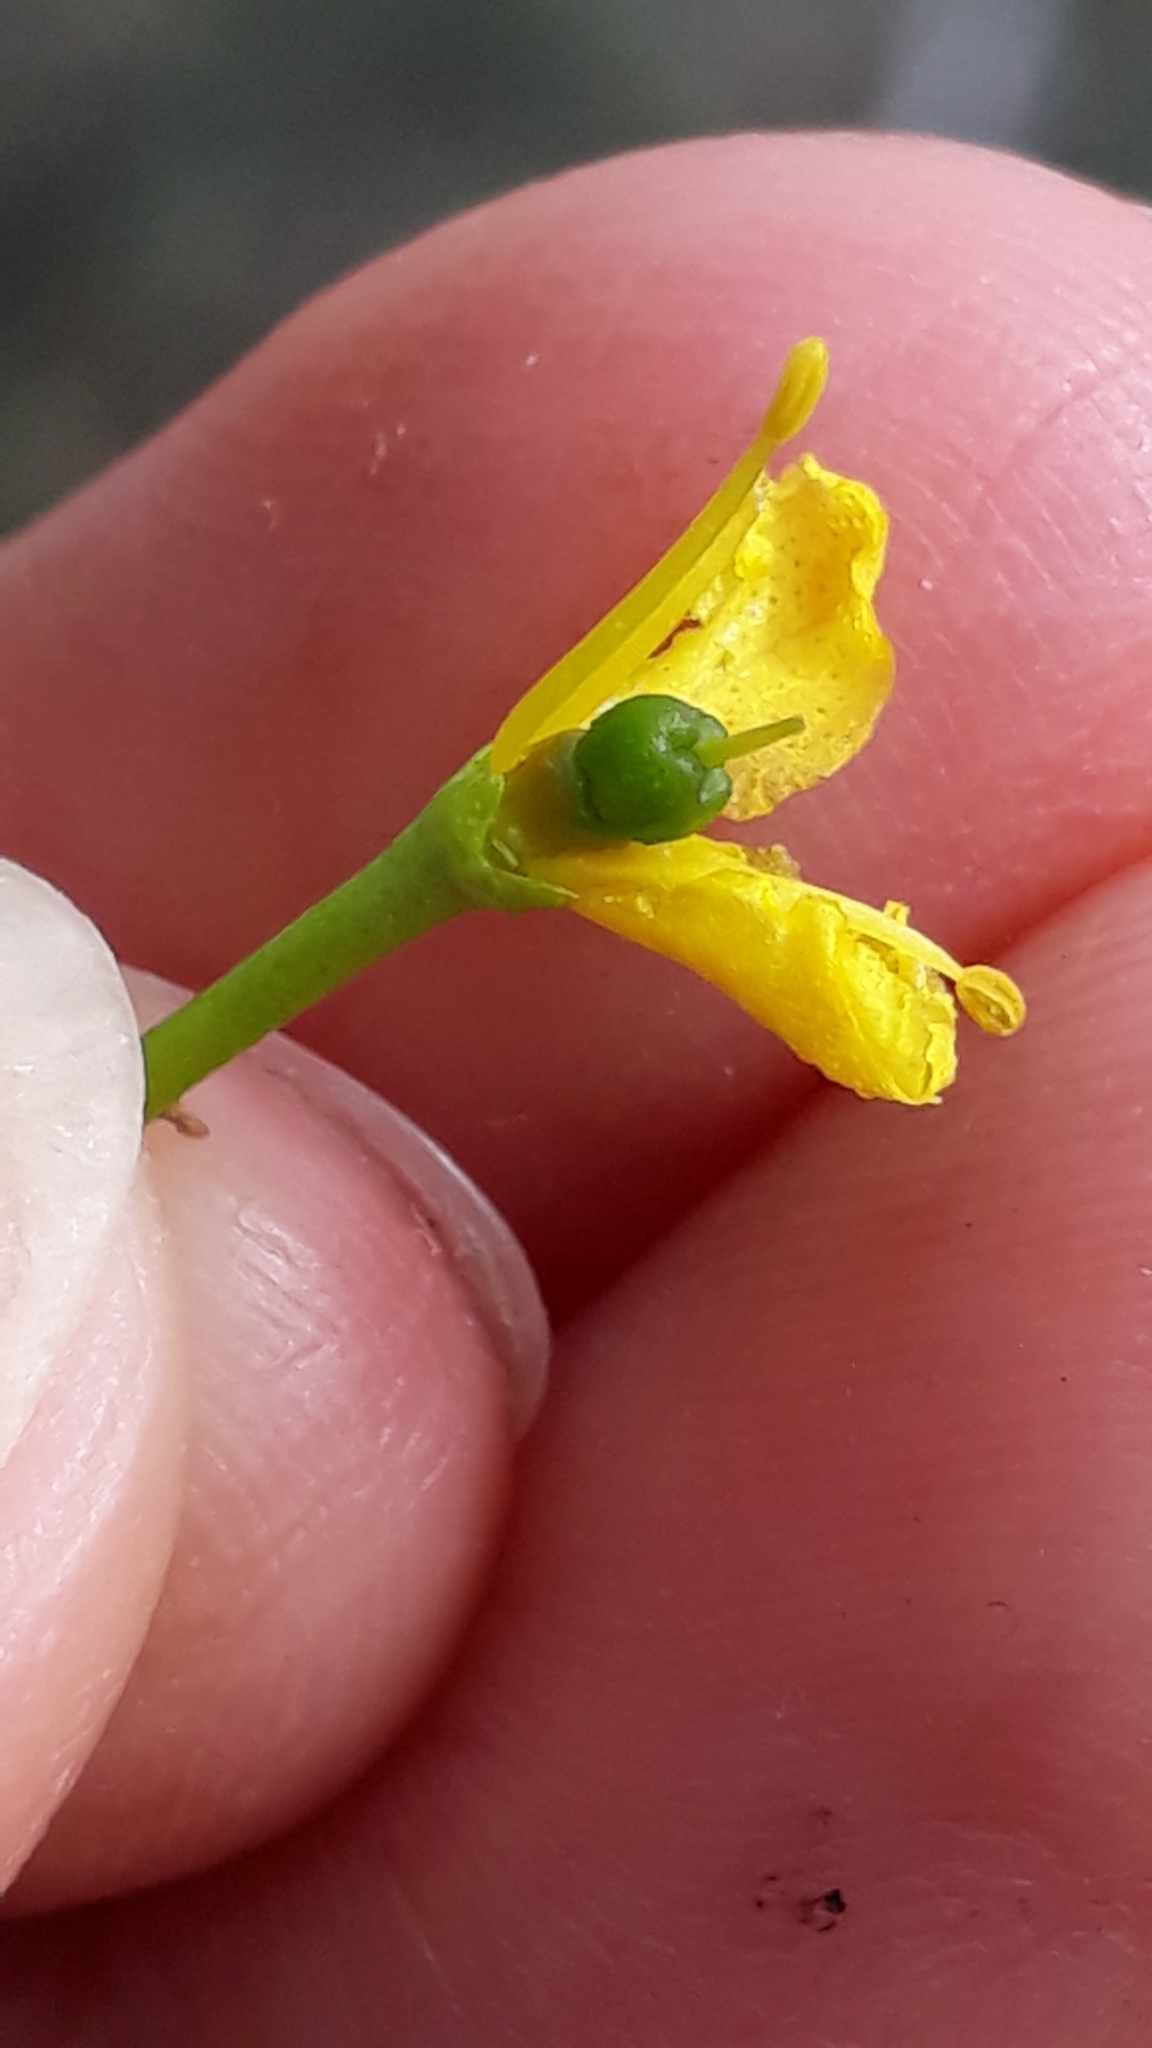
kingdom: Plantae
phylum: Tracheophyta
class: Magnoliopsida
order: Sapindales
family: Rutaceae
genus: Ruta
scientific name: Ruta pinnata
